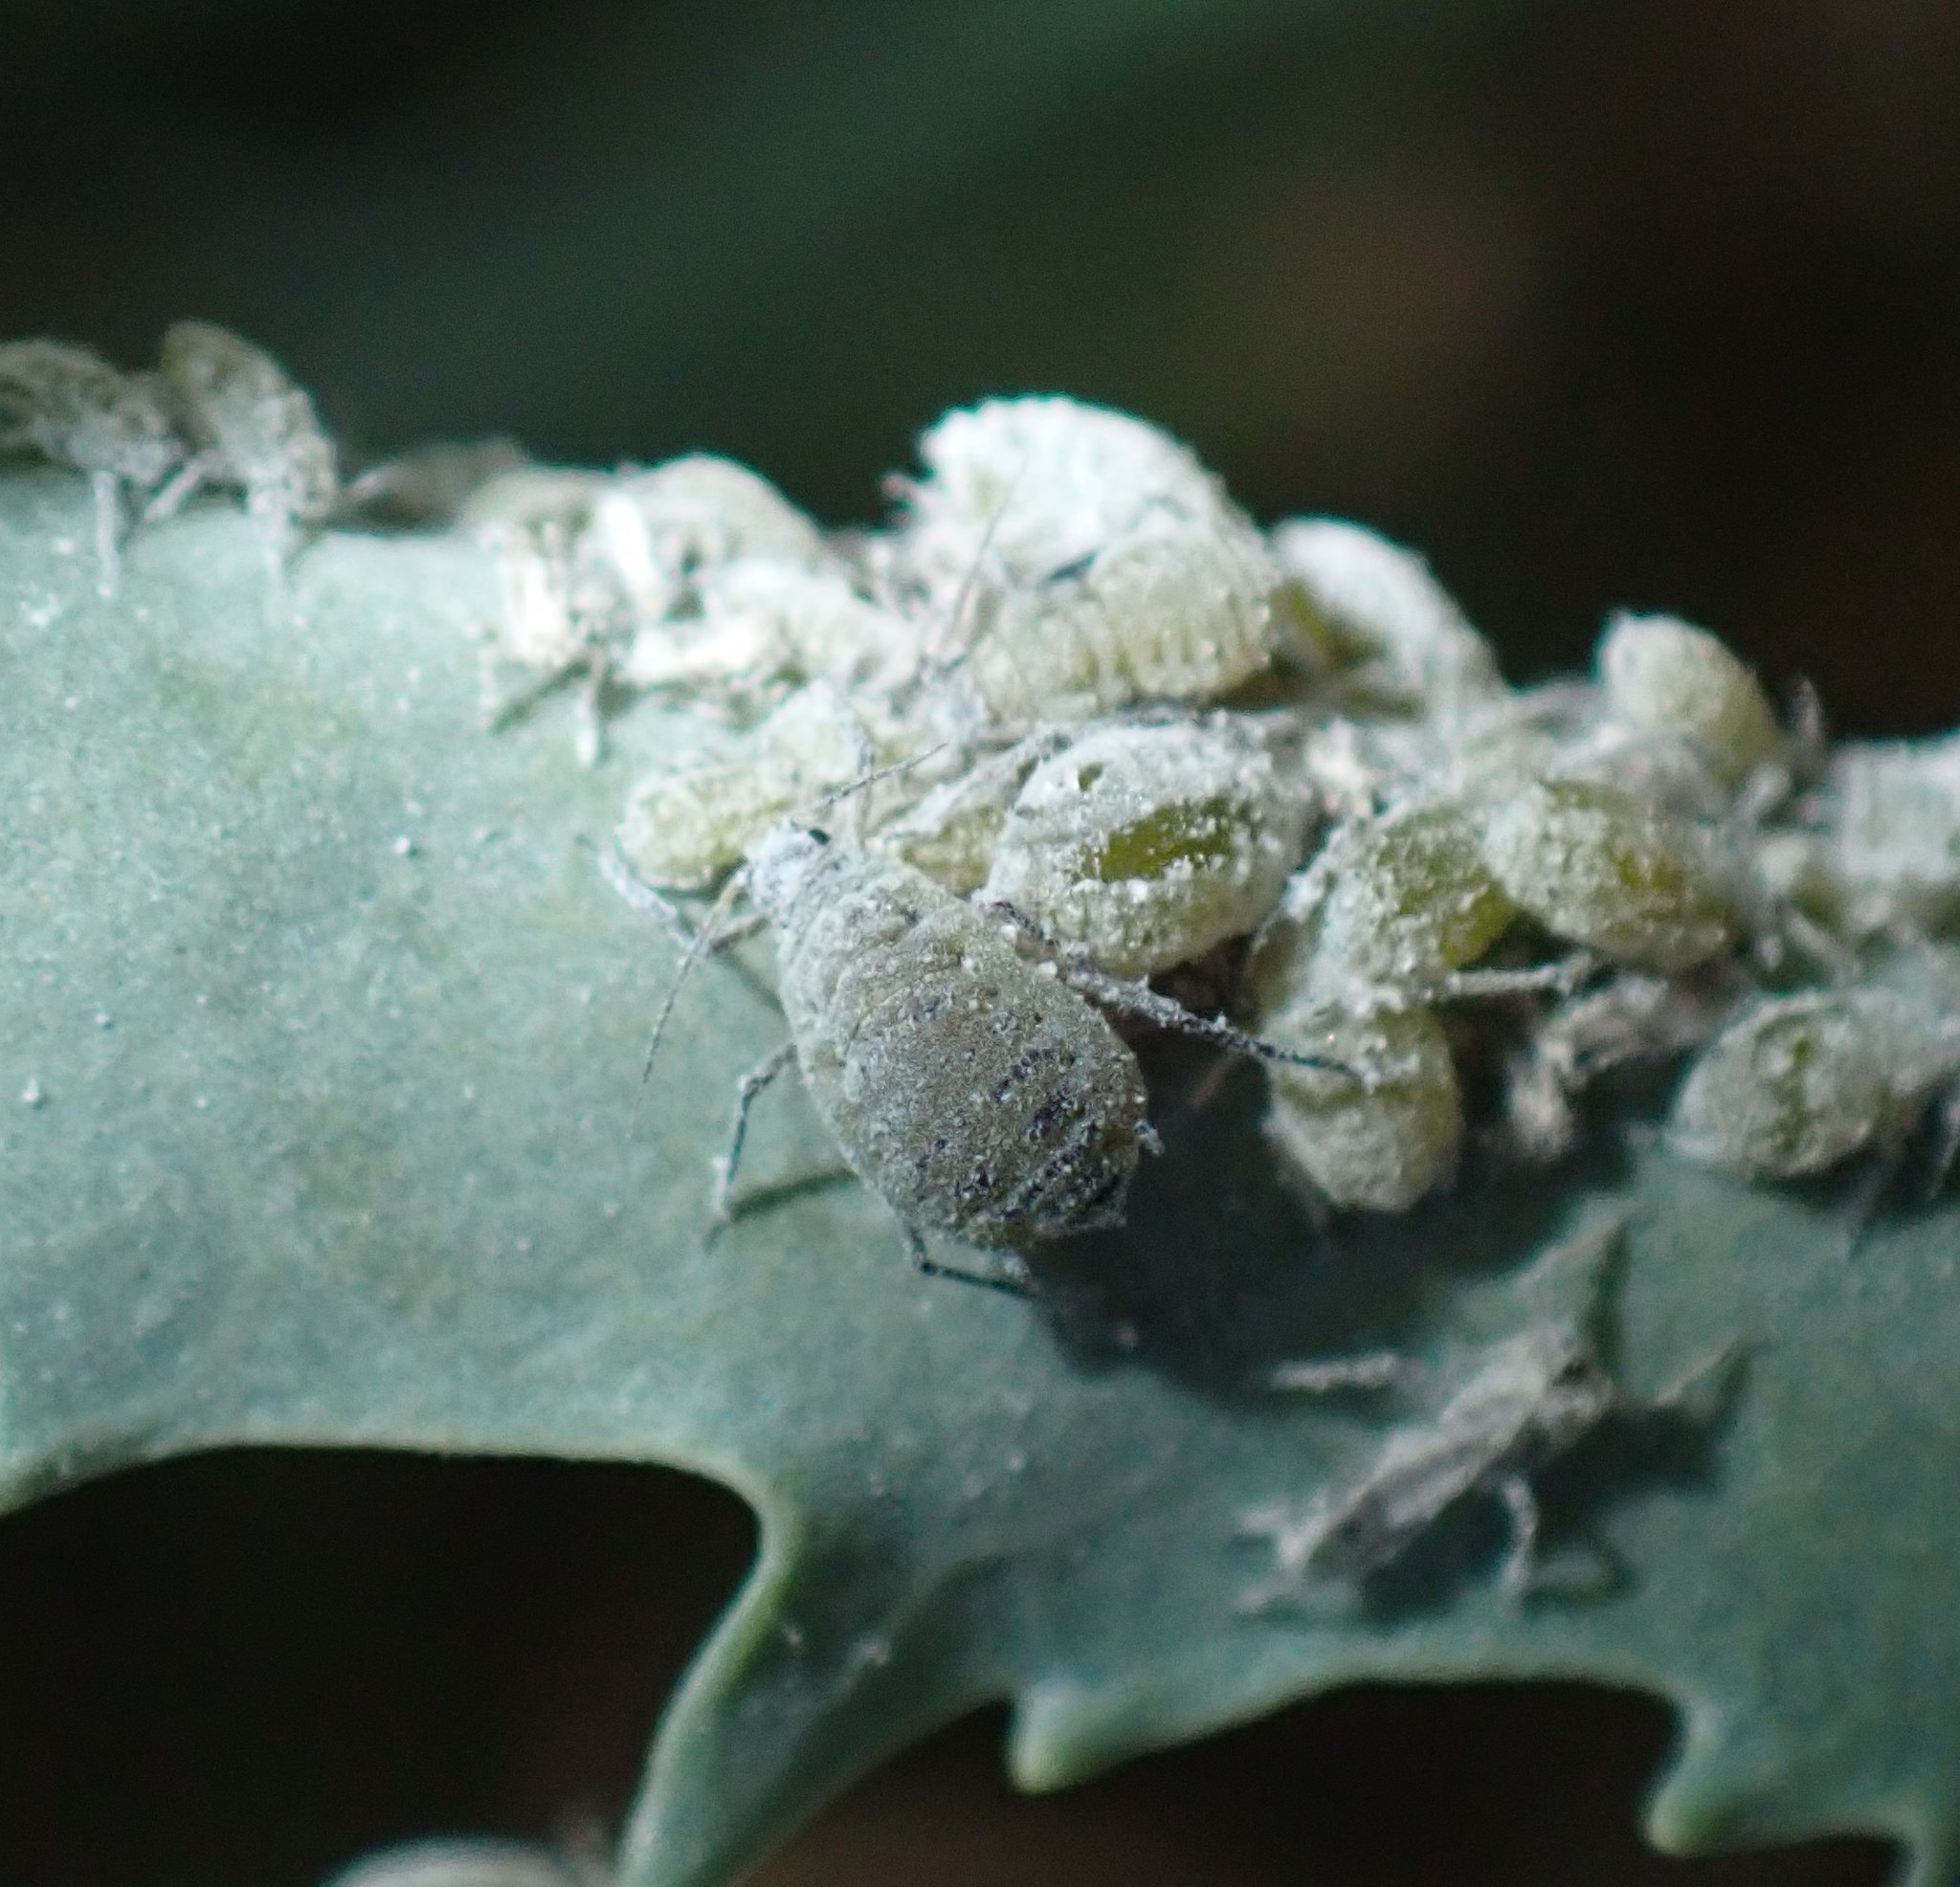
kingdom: Animalia
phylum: Arthropoda
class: Insecta
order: Hemiptera
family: Aphididae
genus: Brevicoryne
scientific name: Brevicoryne brassicae
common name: Cabbage aphid
